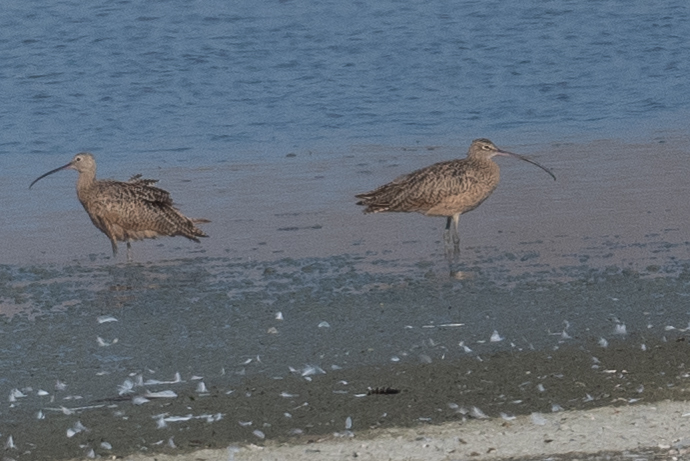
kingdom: Animalia
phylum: Chordata
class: Aves
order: Charadriiformes
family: Scolopacidae
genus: Numenius
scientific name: Numenius americanus
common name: Long-billed curlew
